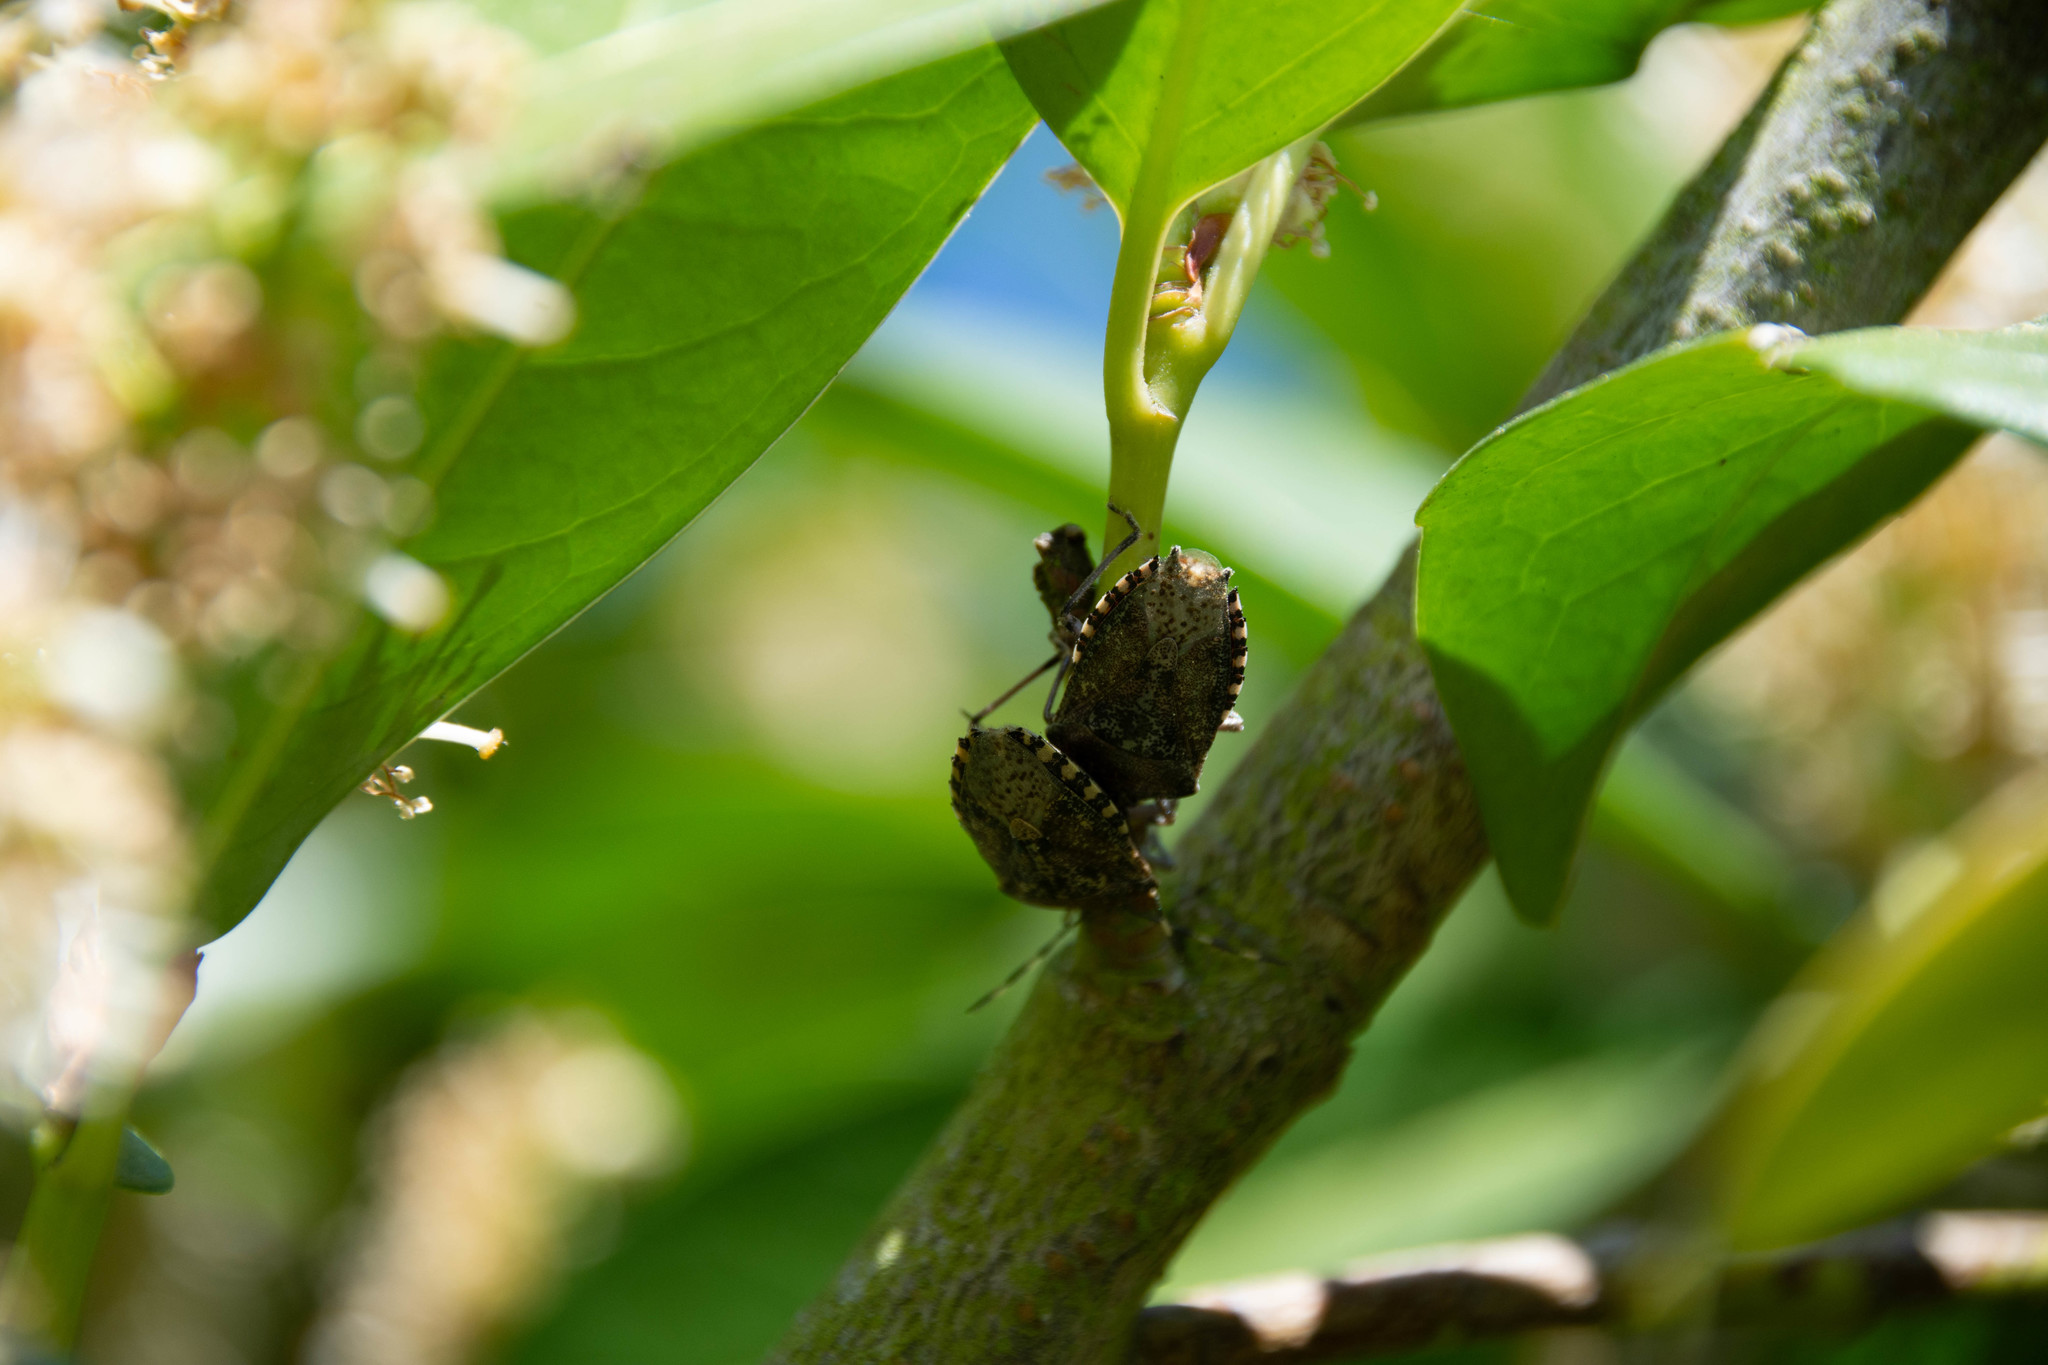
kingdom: Animalia
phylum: Arthropoda
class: Insecta
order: Hemiptera
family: Pentatomidae
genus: Rhaphigaster
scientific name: Rhaphigaster nebulosa
